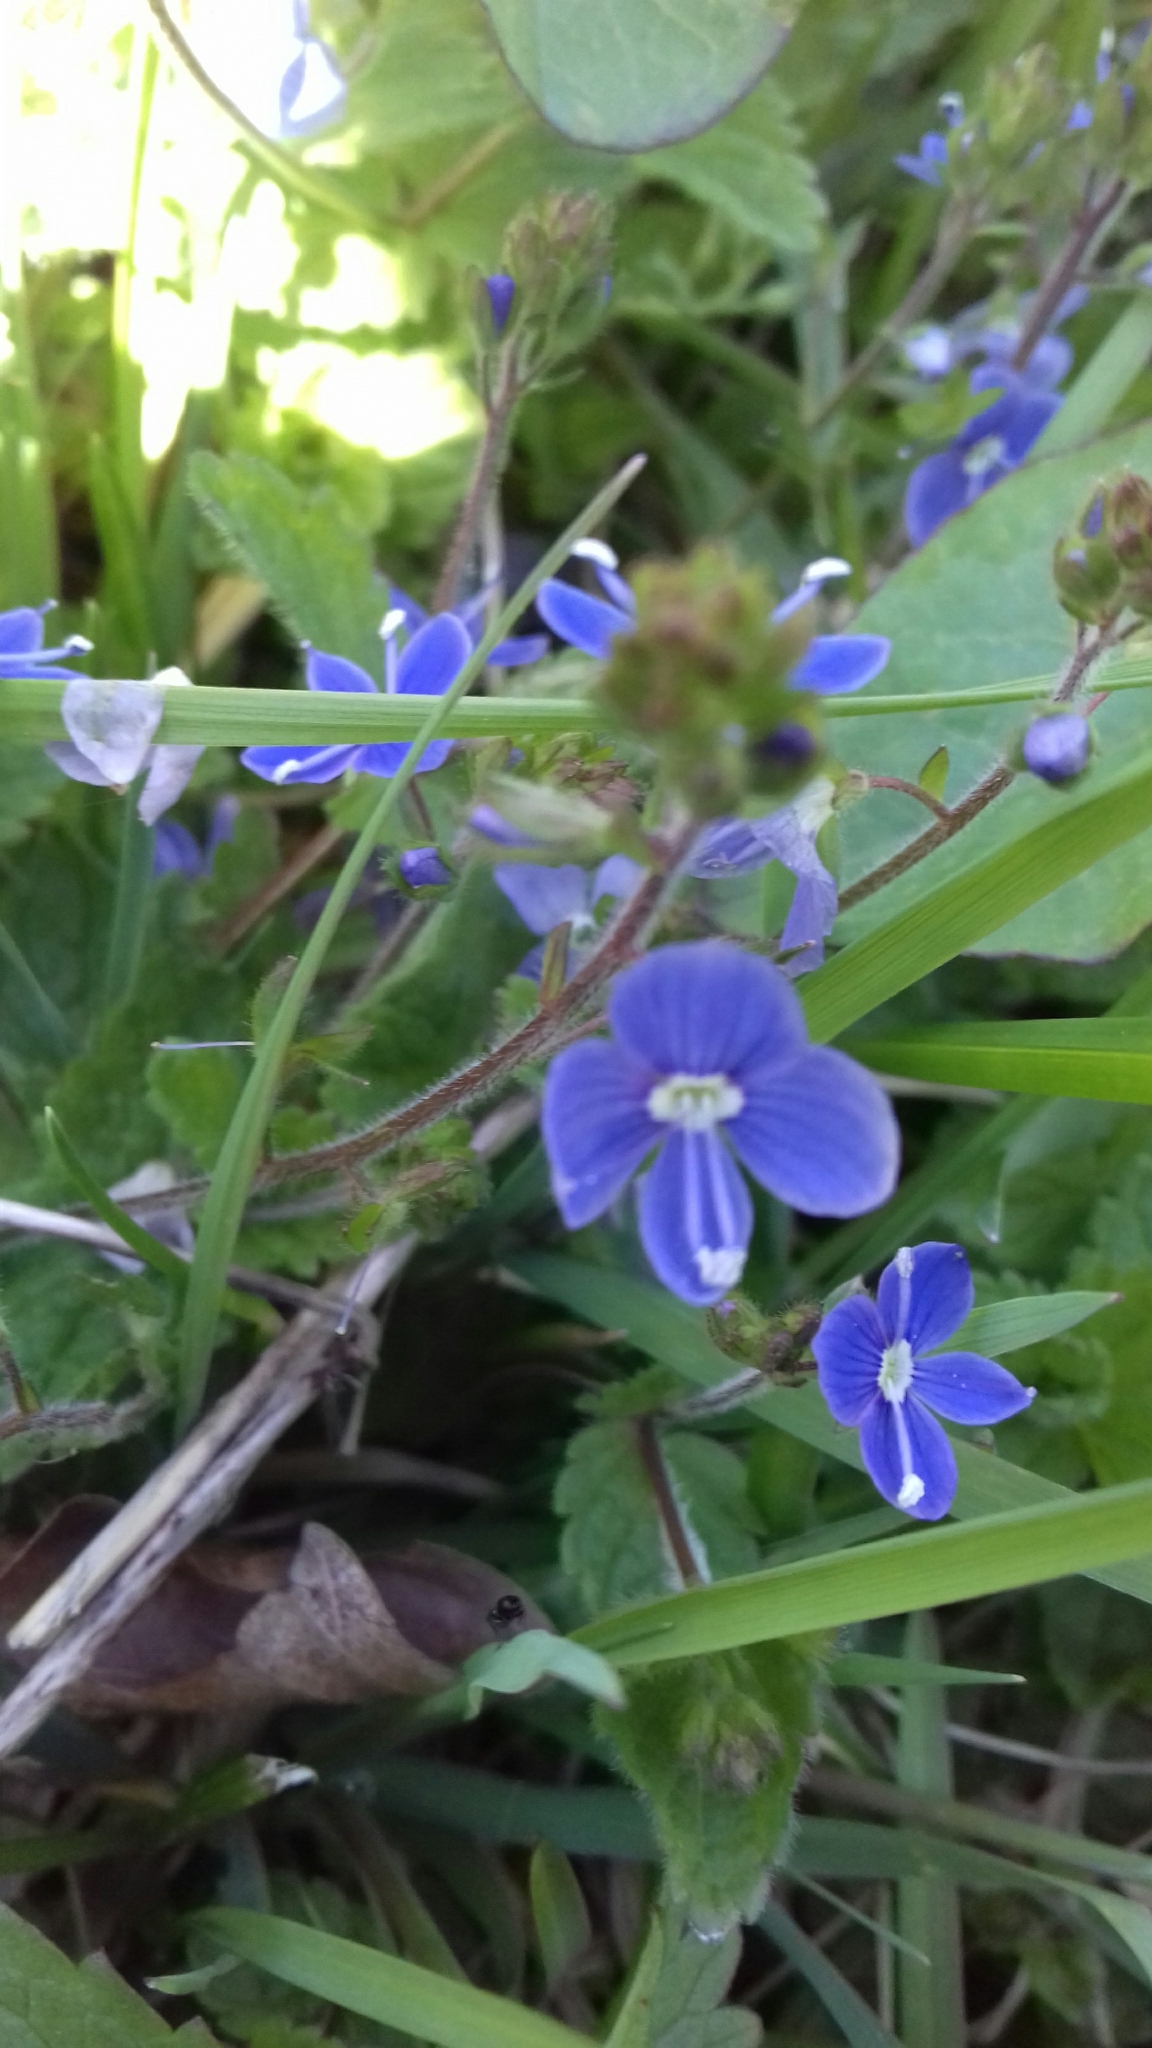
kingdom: Plantae
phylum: Tracheophyta
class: Magnoliopsida
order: Lamiales
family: Plantaginaceae
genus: Veronica
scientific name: Veronica chamaedrys
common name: Germander speedwell
